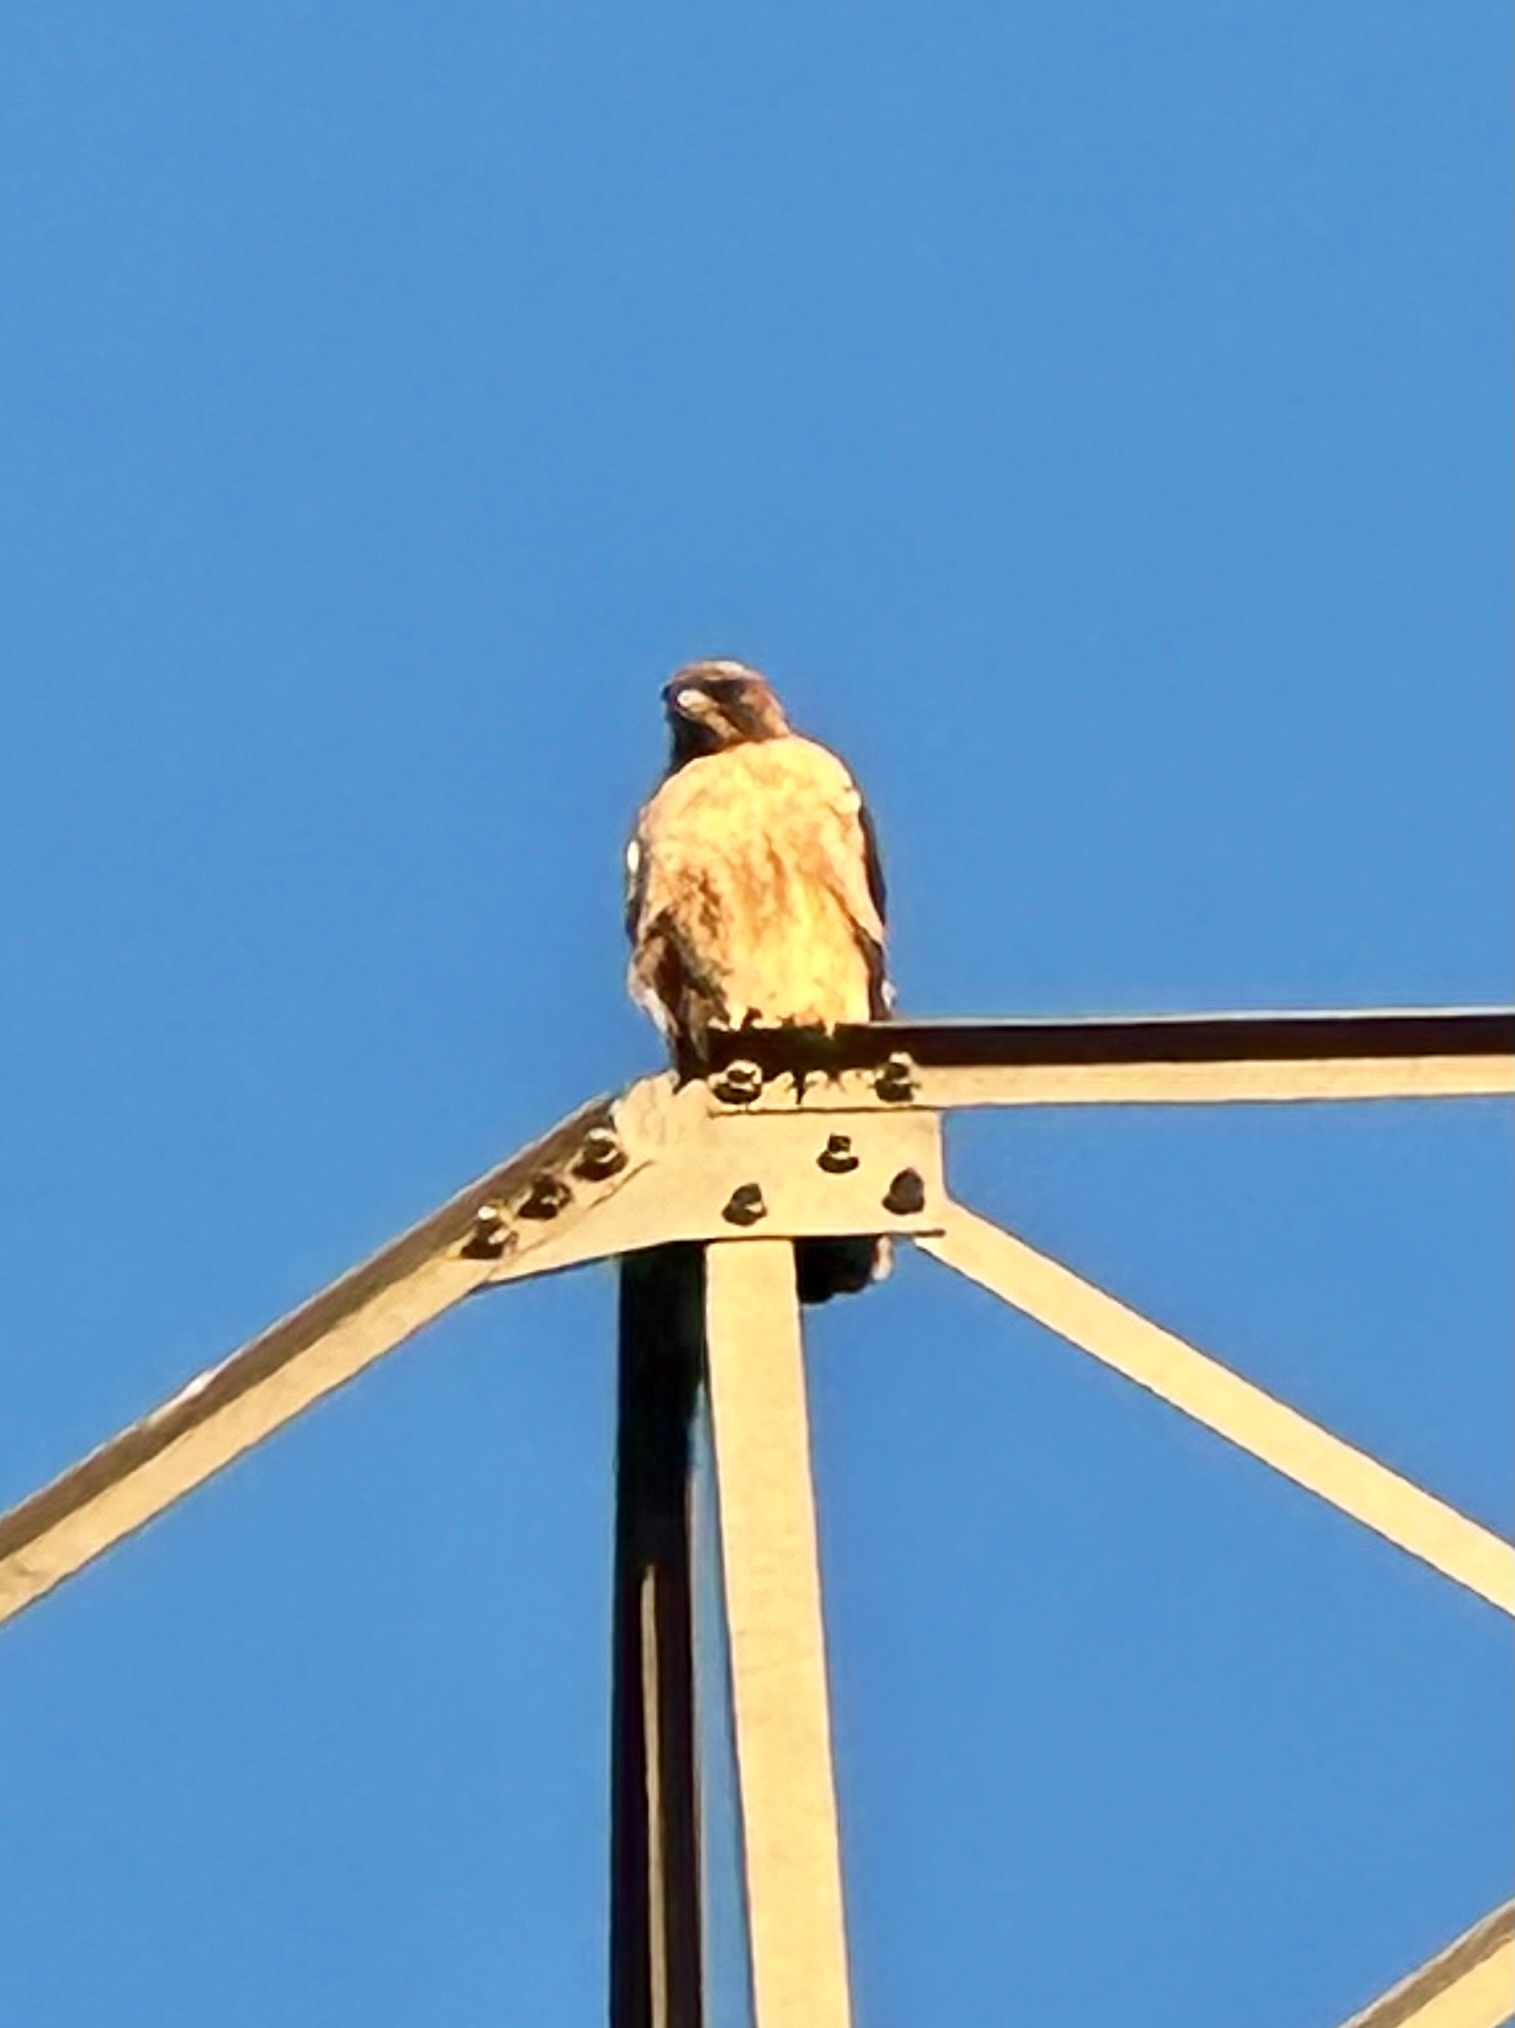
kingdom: Animalia
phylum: Chordata
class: Aves
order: Accipitriformes
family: Accipitridae
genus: Buteo
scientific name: Buteo jamaicensis
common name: Red-tailed hawk
